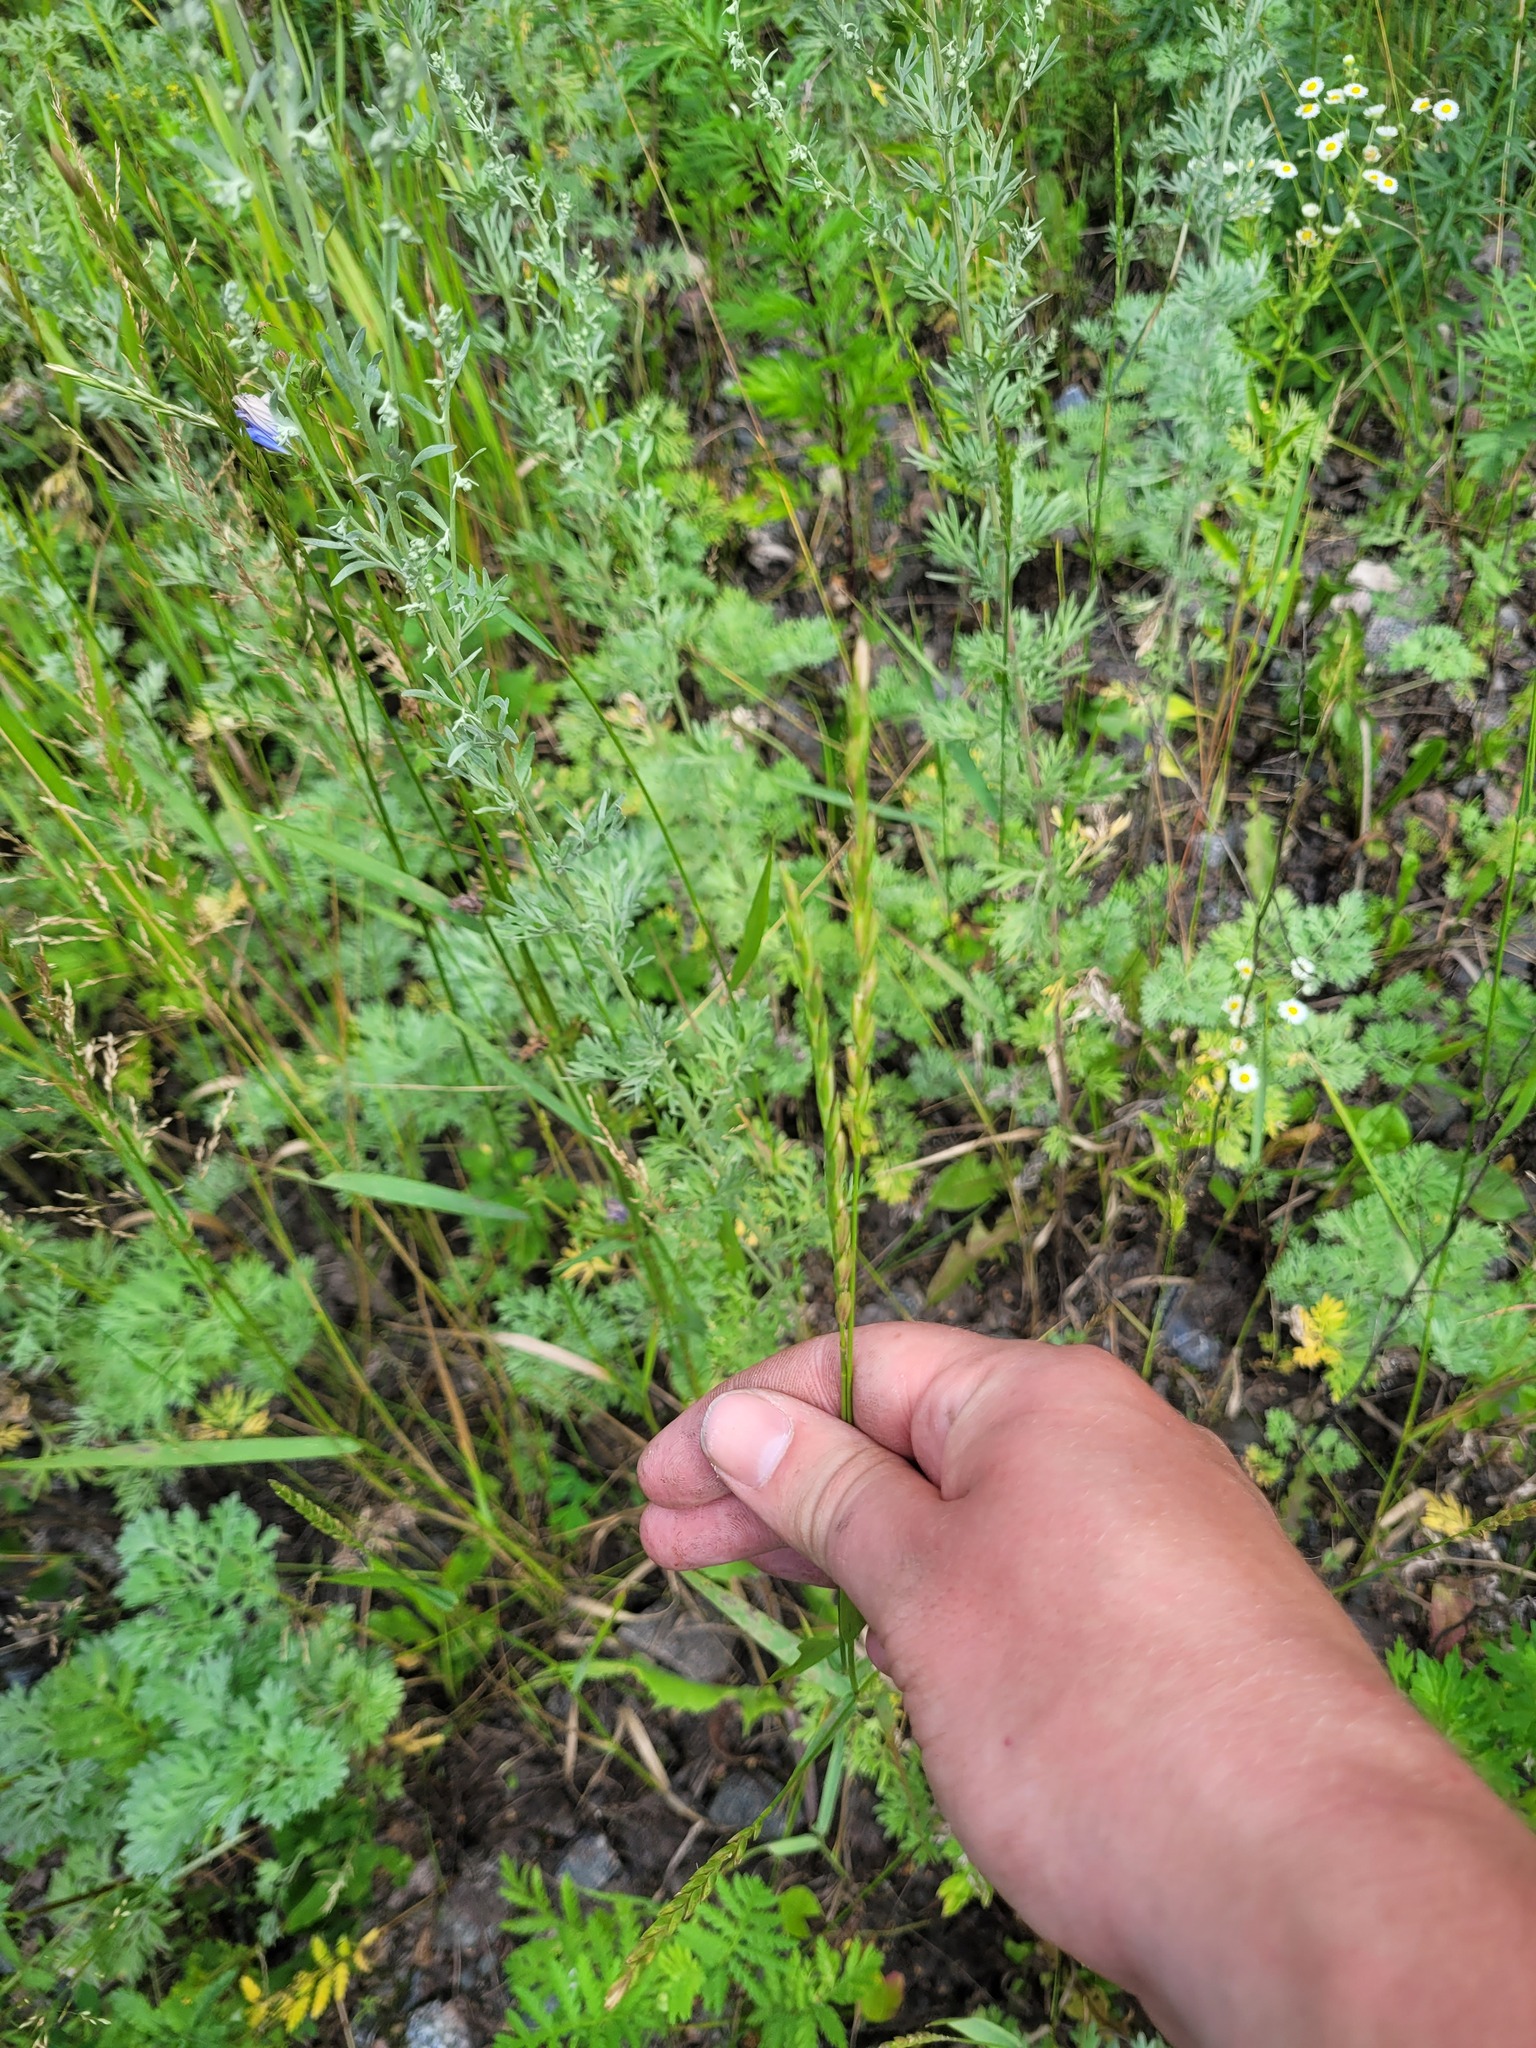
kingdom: Plantae
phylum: Tracheophyta
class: Liliopsida
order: Poales
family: Poaceae
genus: Elymus
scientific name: Elymus repens
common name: Quackgrass
